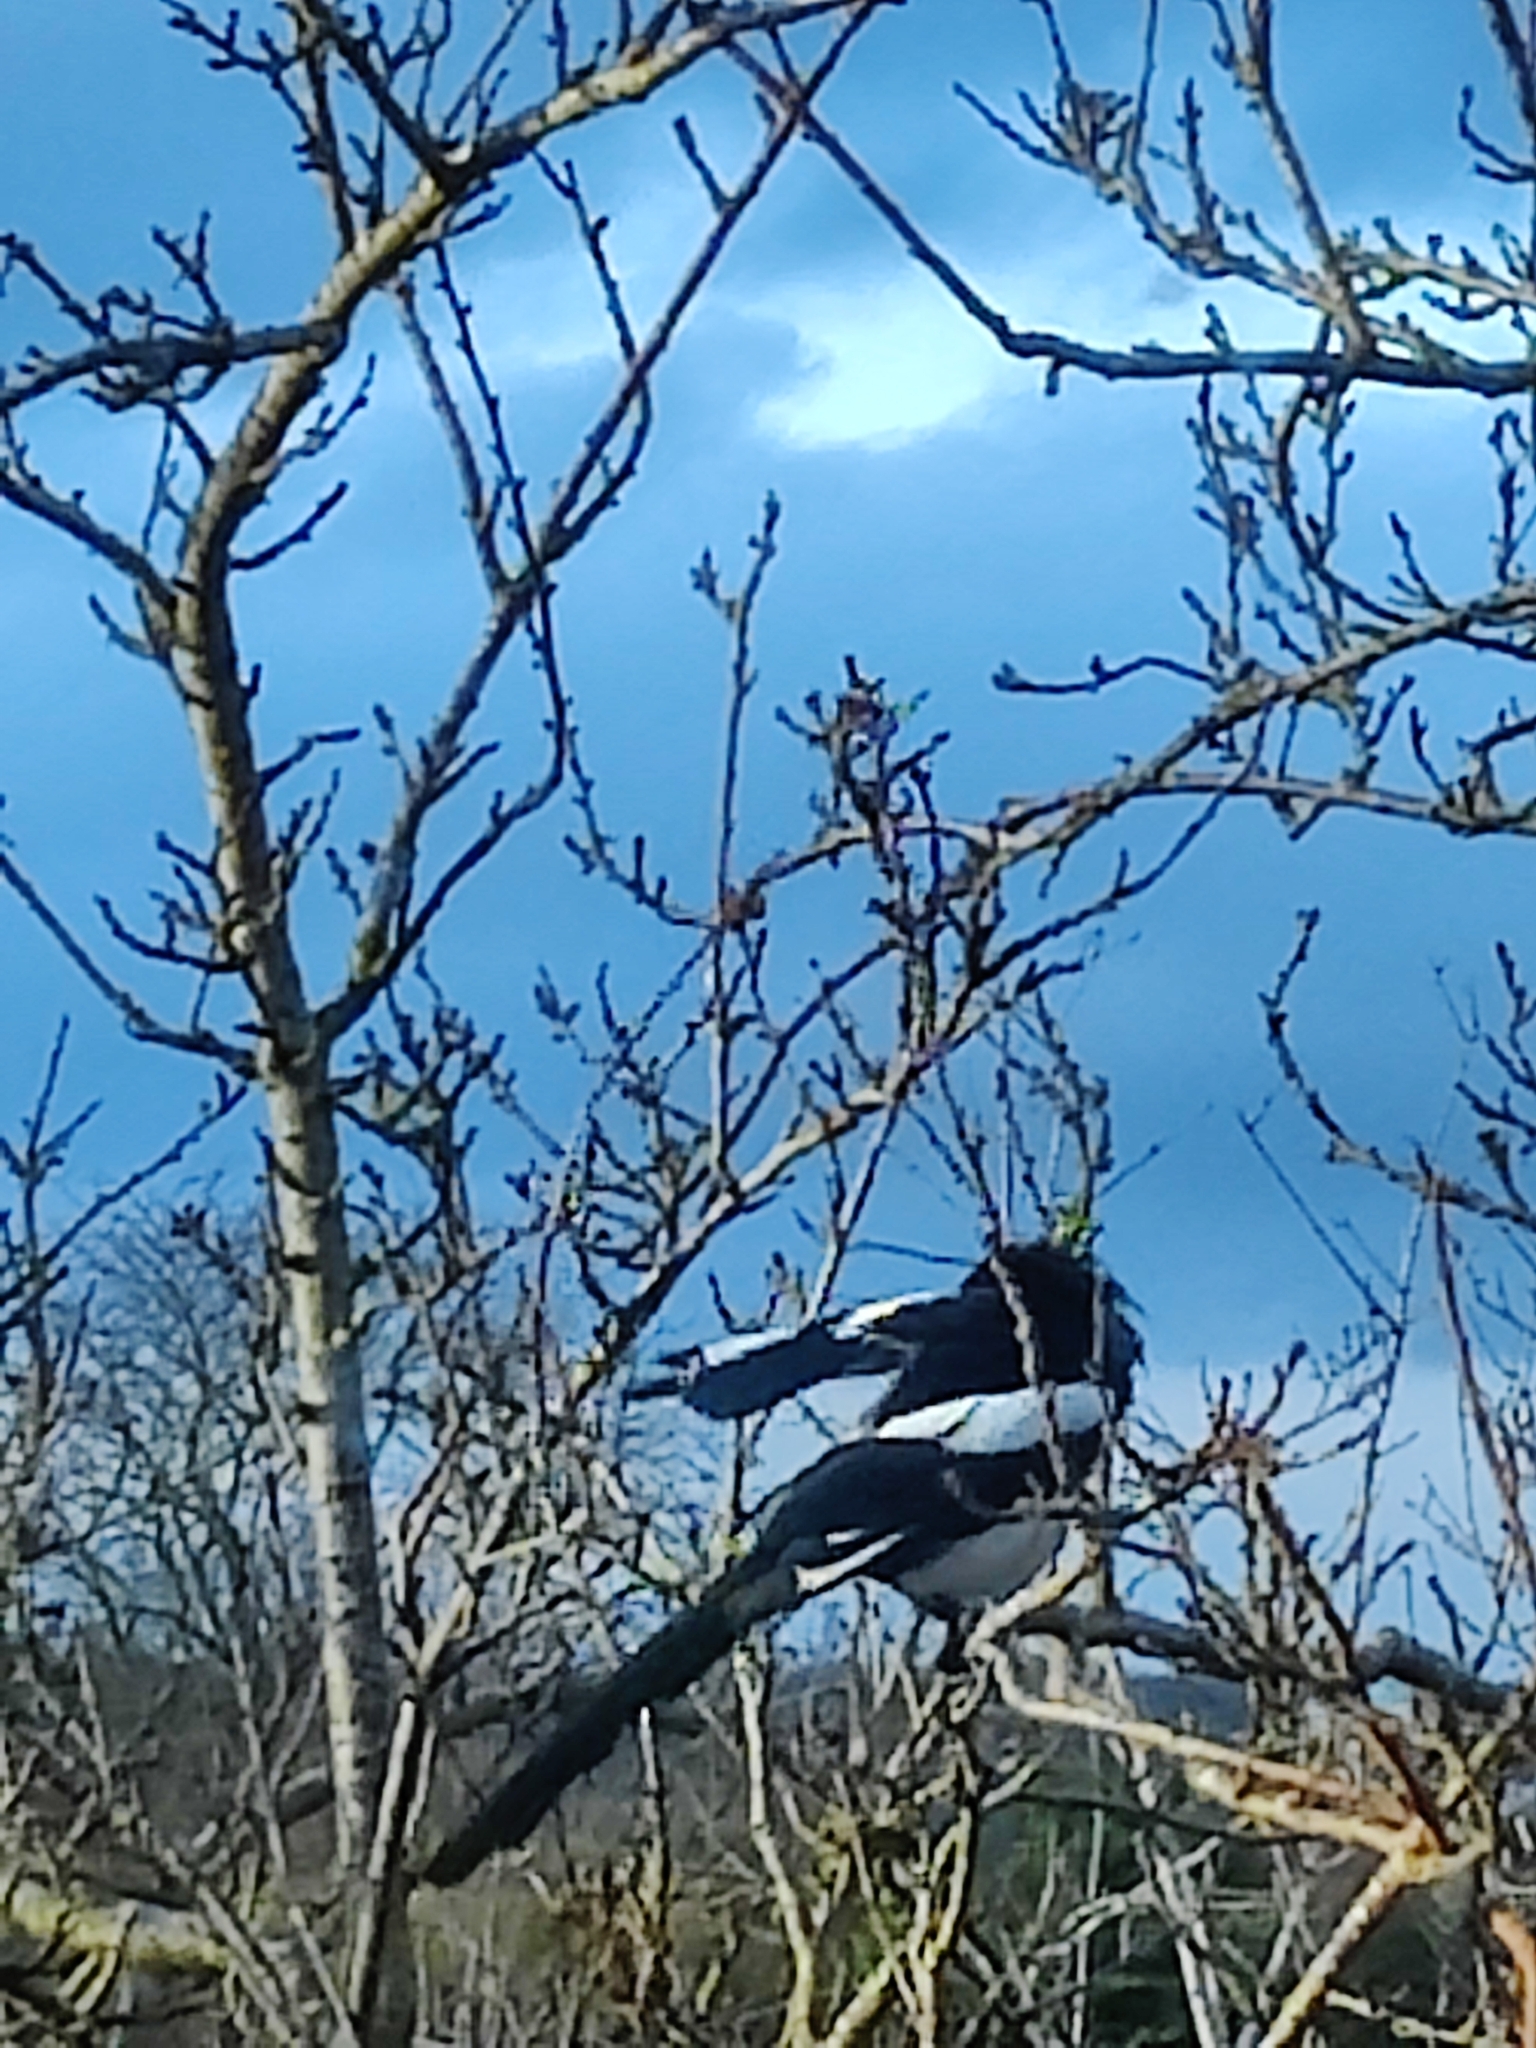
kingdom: Animalia
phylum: Chordata
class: Aves
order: Passeriformes
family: Corvidae
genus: Pica
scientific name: Pica pica
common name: Eurasian magpie
